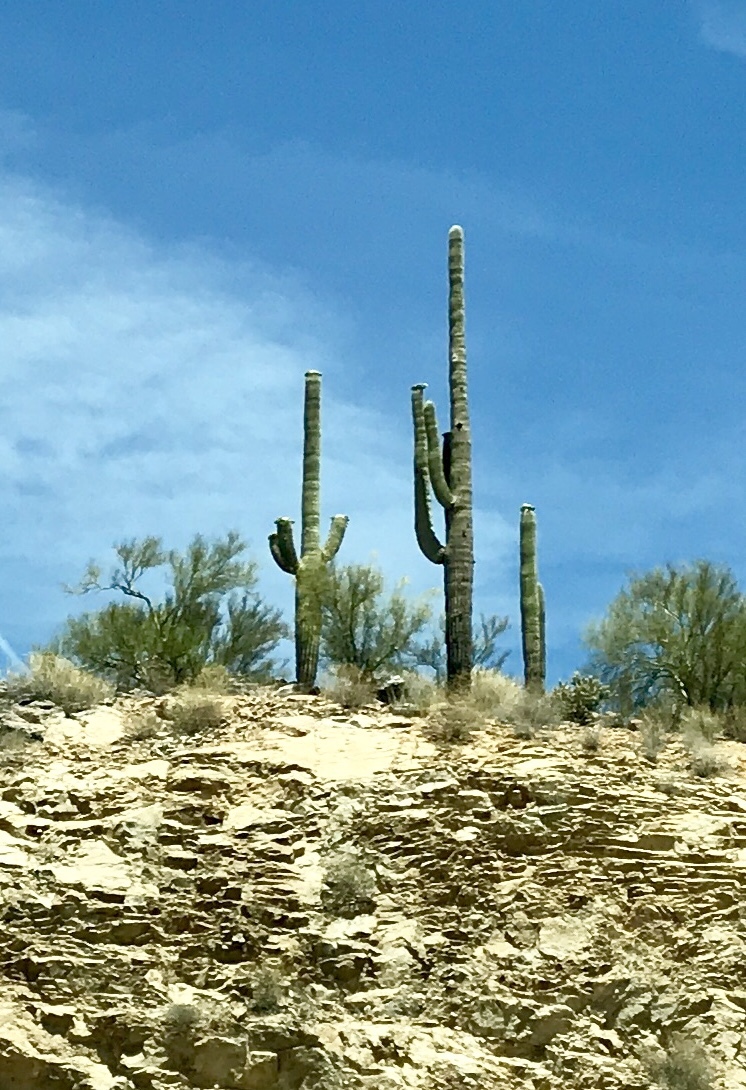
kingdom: Plantae
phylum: Tracheophyta
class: Magnoliopsida
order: Caryophyllales
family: Cactaceae
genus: Carnegiea
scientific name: Carnegiea gigantea
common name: Saguaro
